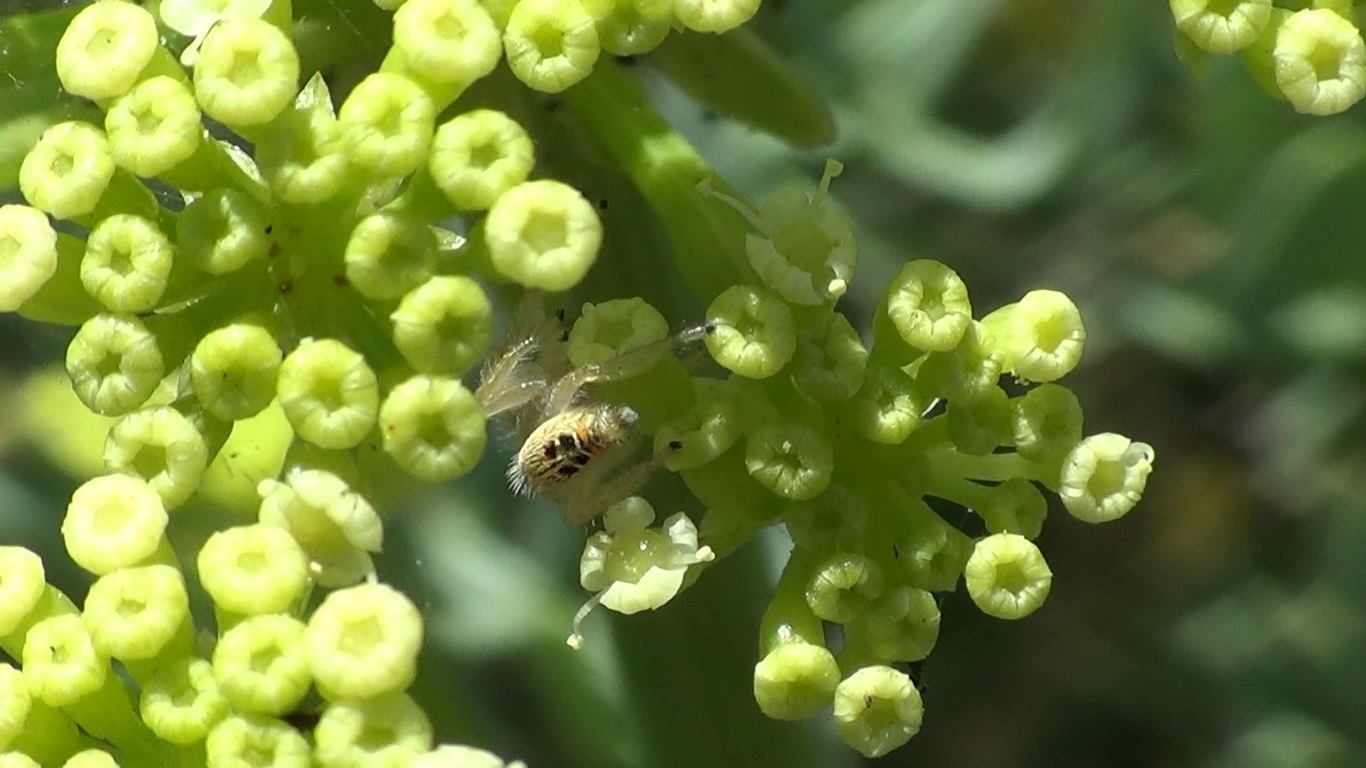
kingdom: Animalia
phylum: Arthropoda
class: Arachnida
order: Araneae
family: Salticidae
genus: Thyene
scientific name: Thyene imperialis
